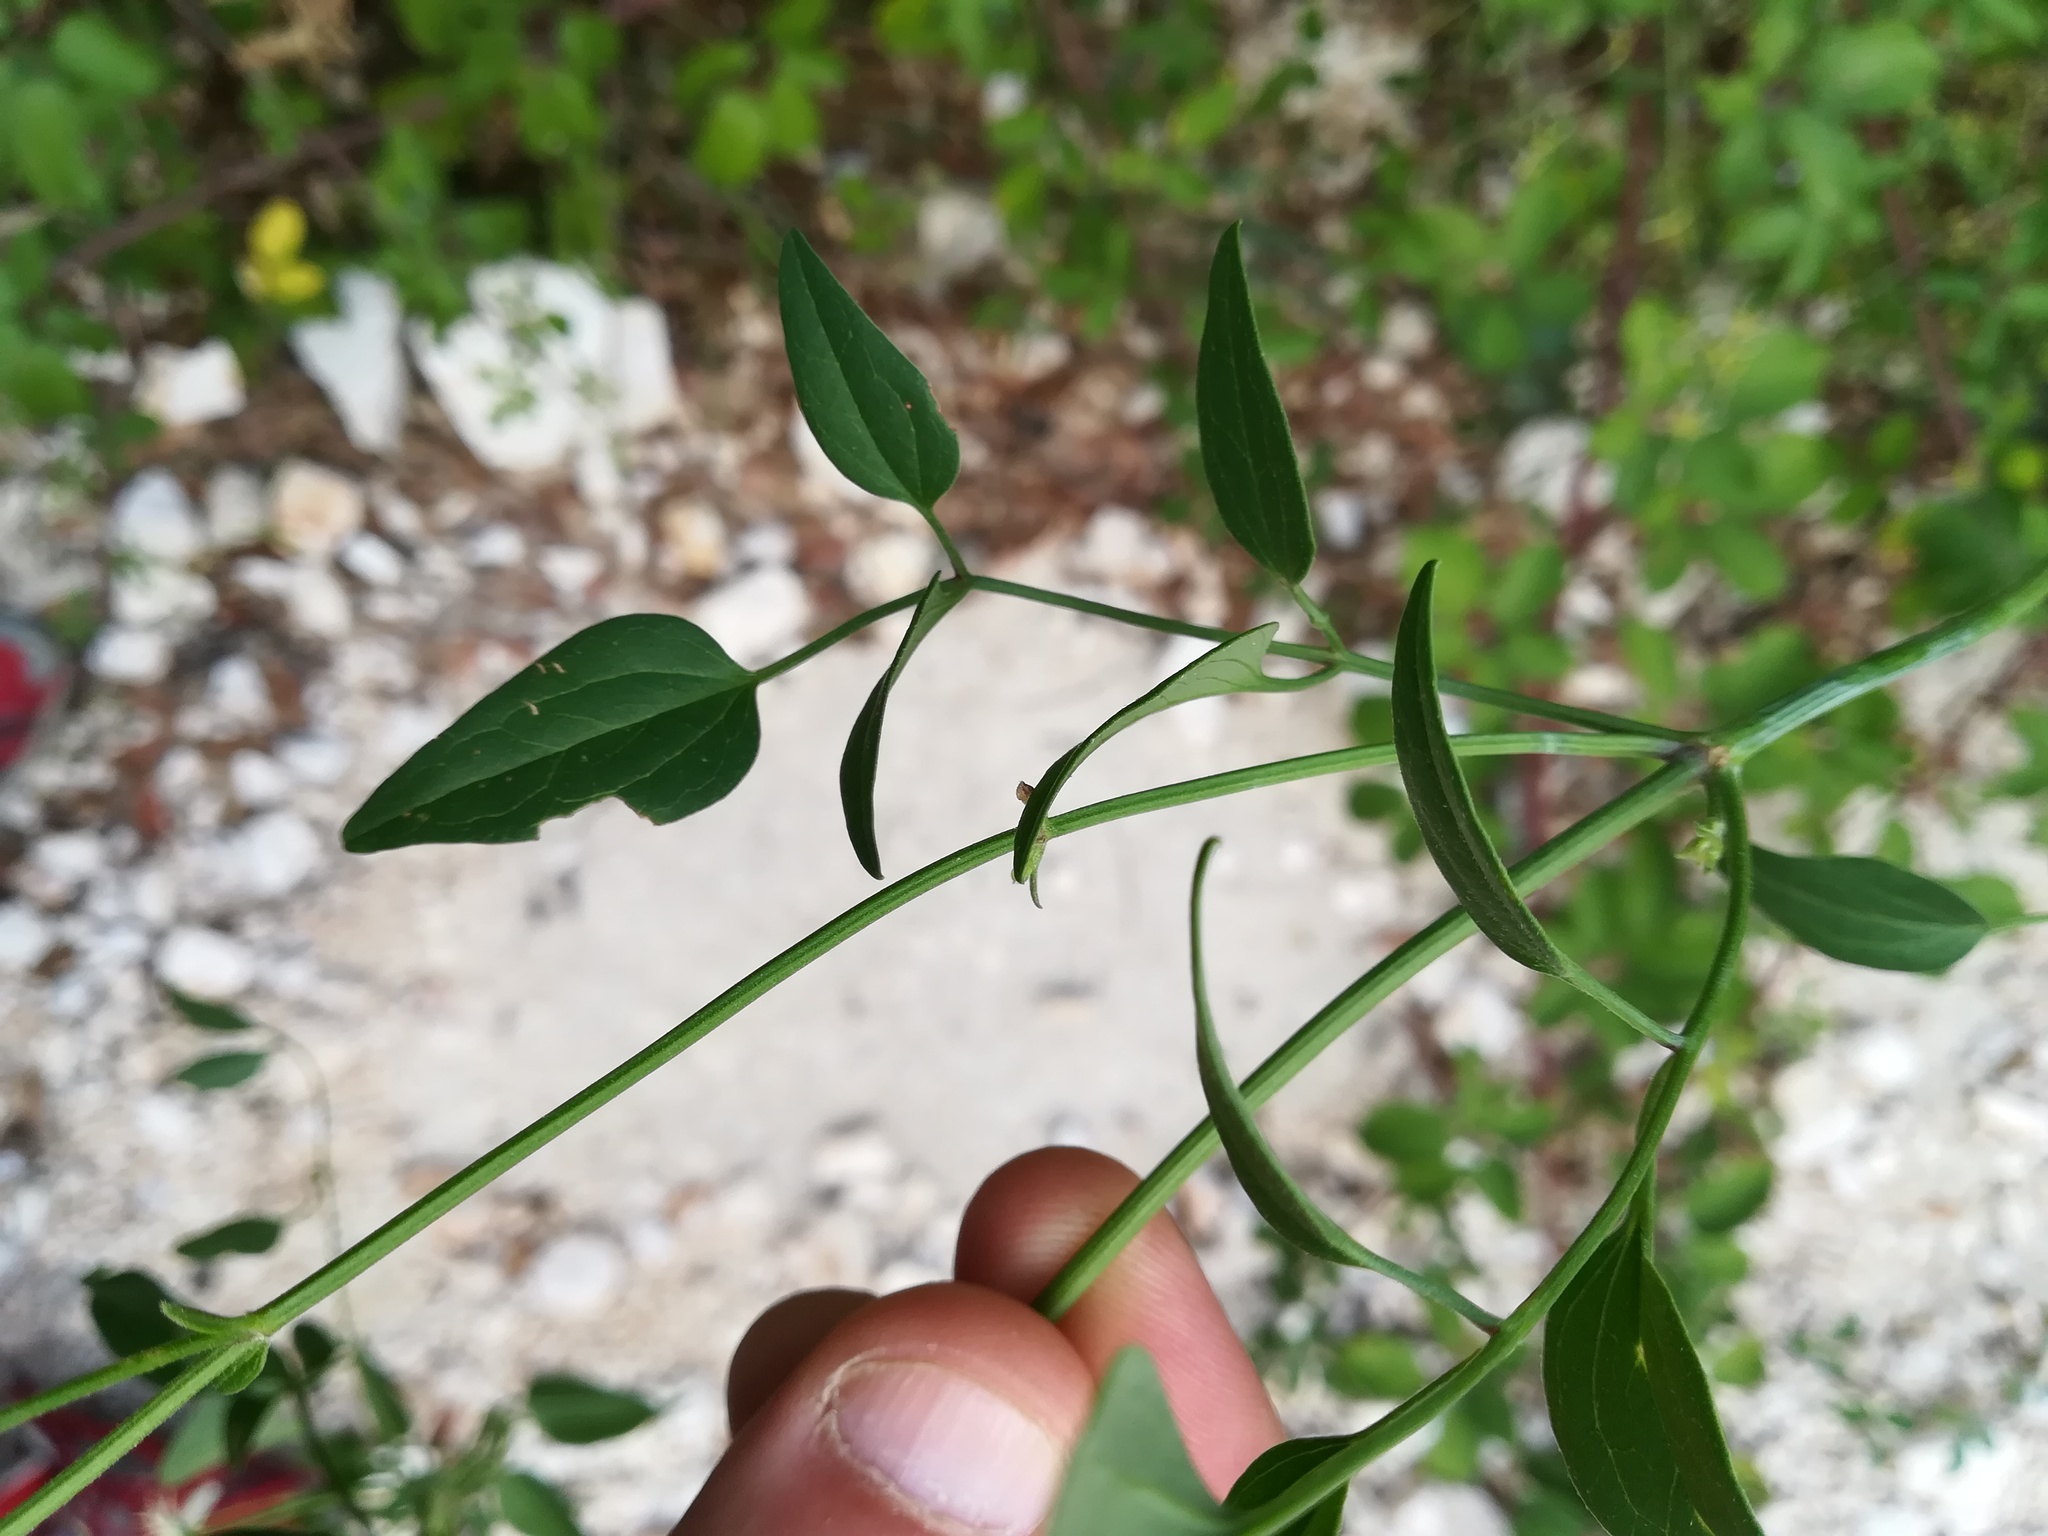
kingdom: Plantae
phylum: Tracheophyta
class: Magnoliopsida
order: Ranunculales
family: Ranunculaceae
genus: Clematis
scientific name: Clematis flammula
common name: Virgin's-bower
